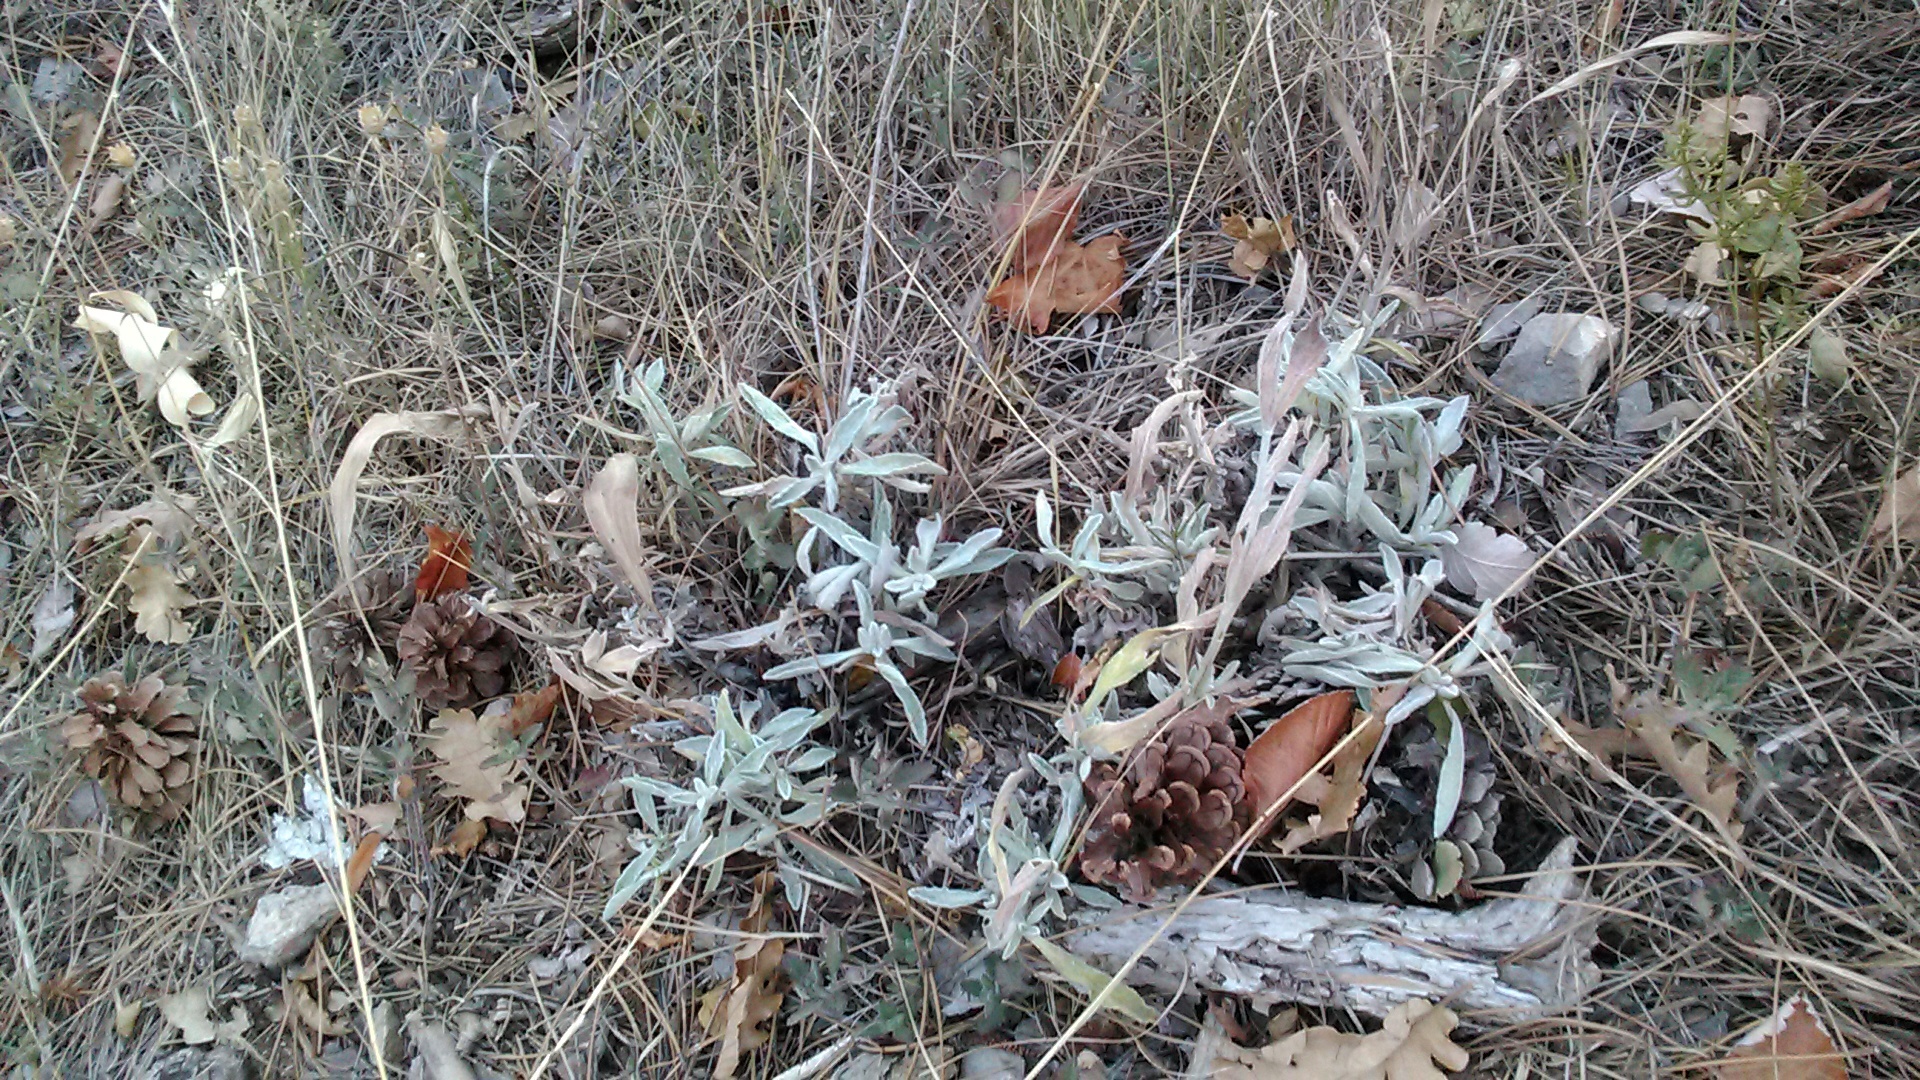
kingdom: Plantae
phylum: Tracheophyta
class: Magnoliopsida
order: Lamiales
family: Lamiaceae
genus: Sideritis
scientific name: Sideritis taurica
